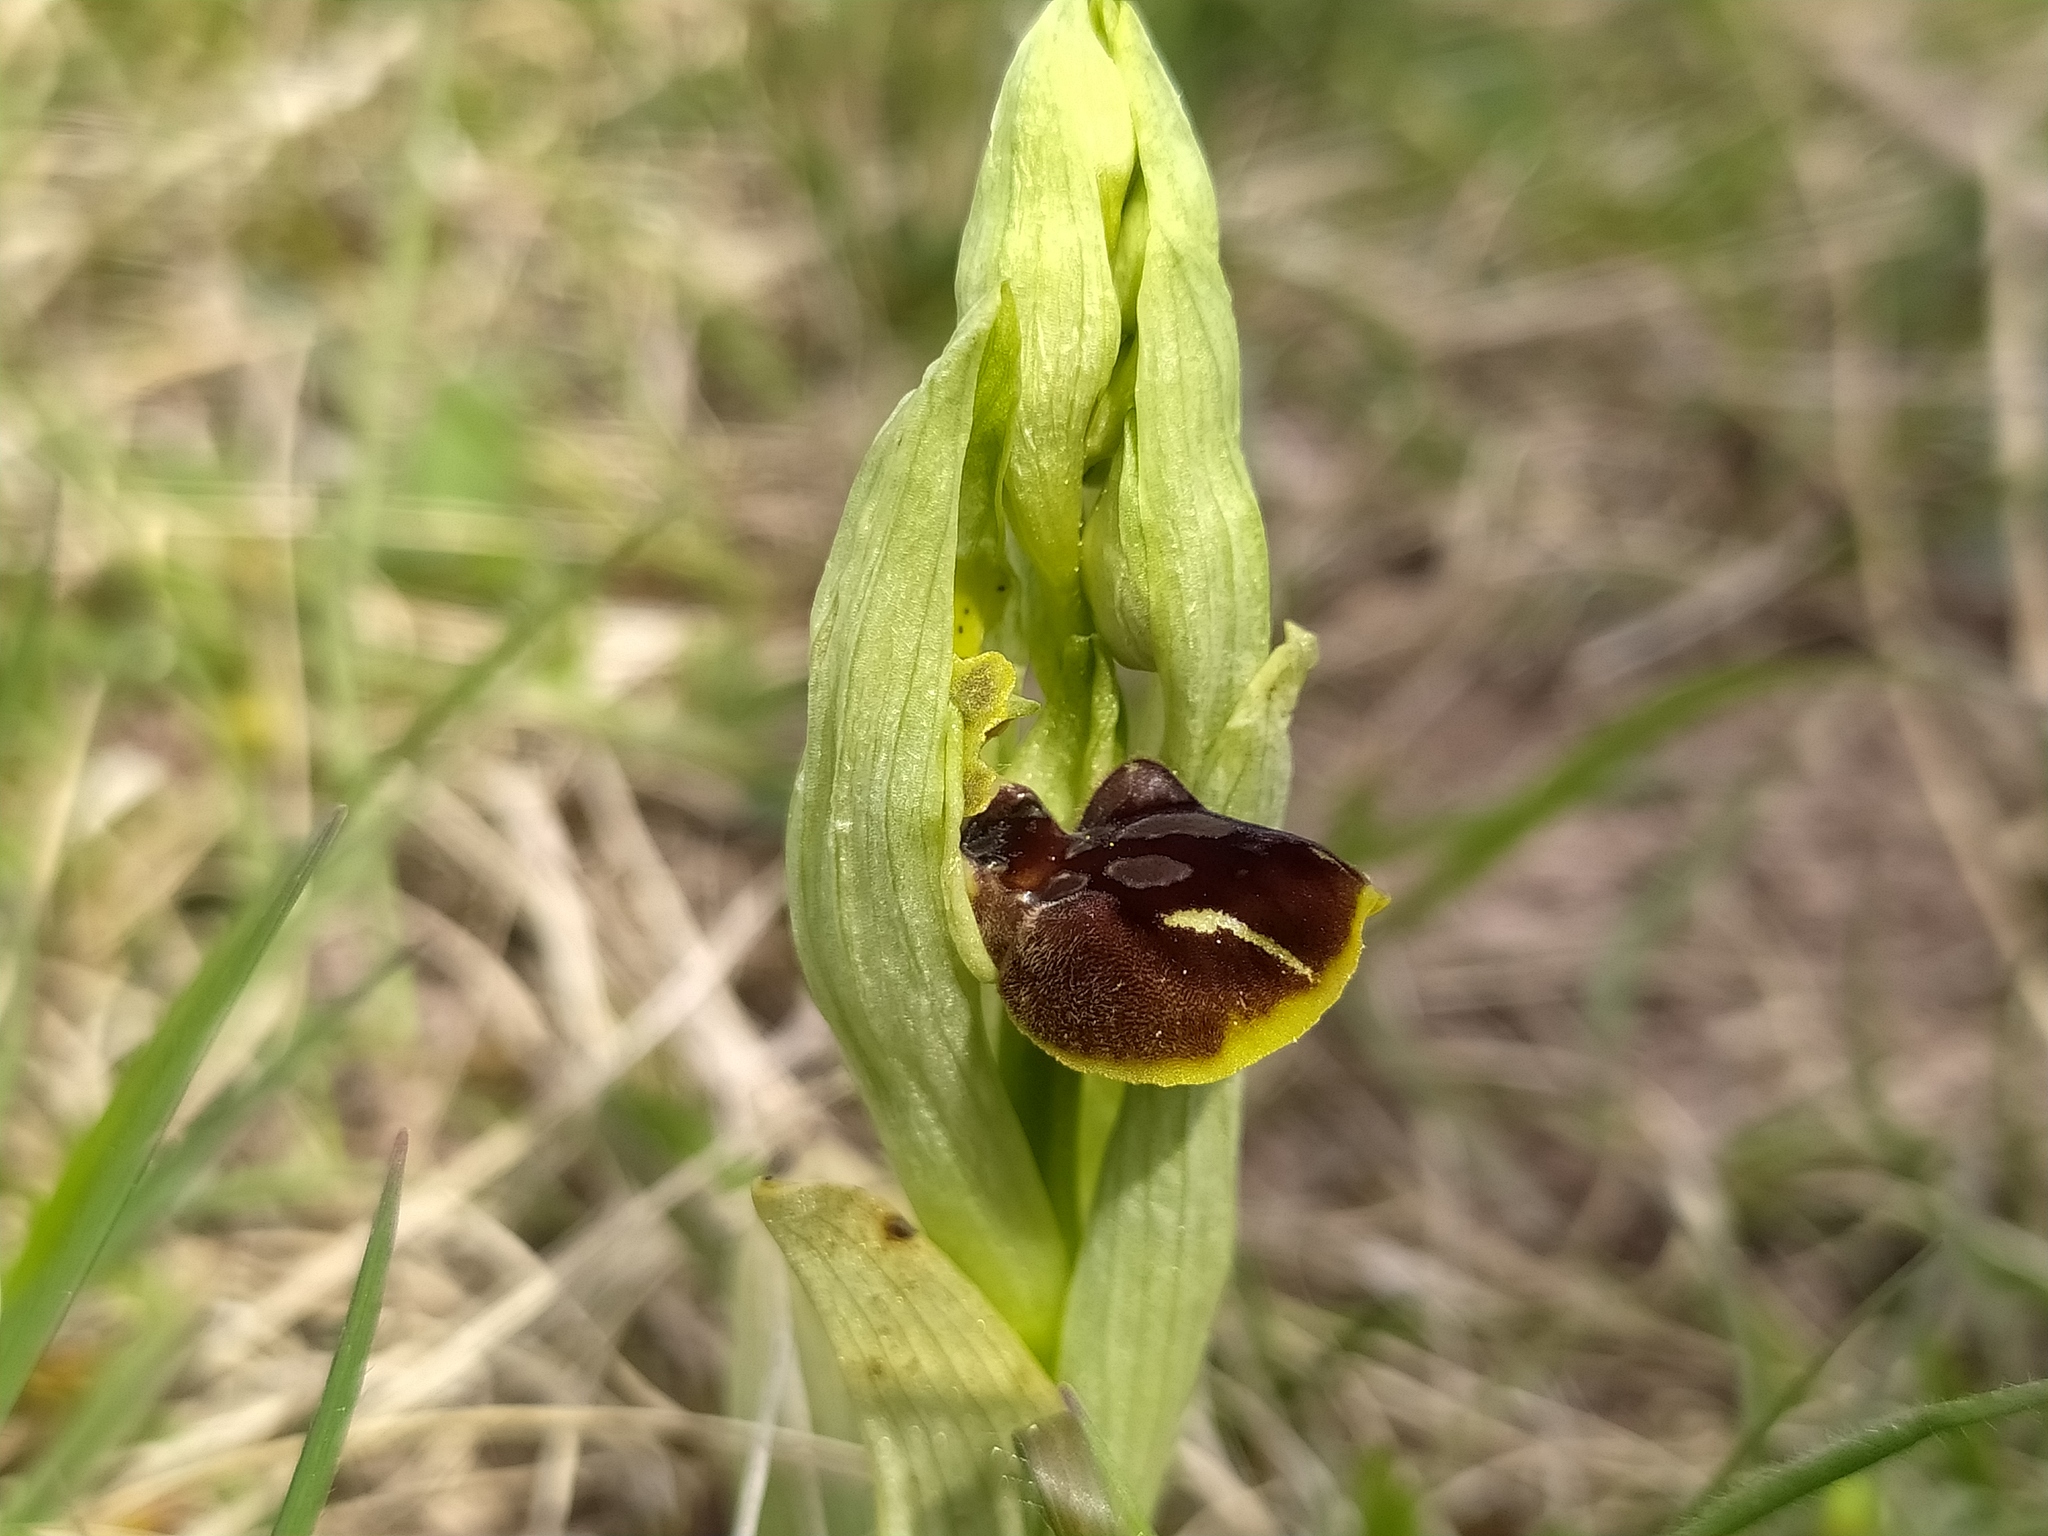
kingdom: Plantae
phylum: Tracheophyta
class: Liliopsida
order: Asparagales
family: Orchidaceae
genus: Ophrys
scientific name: Ophrys sphegodes
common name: Early spider-orchid
